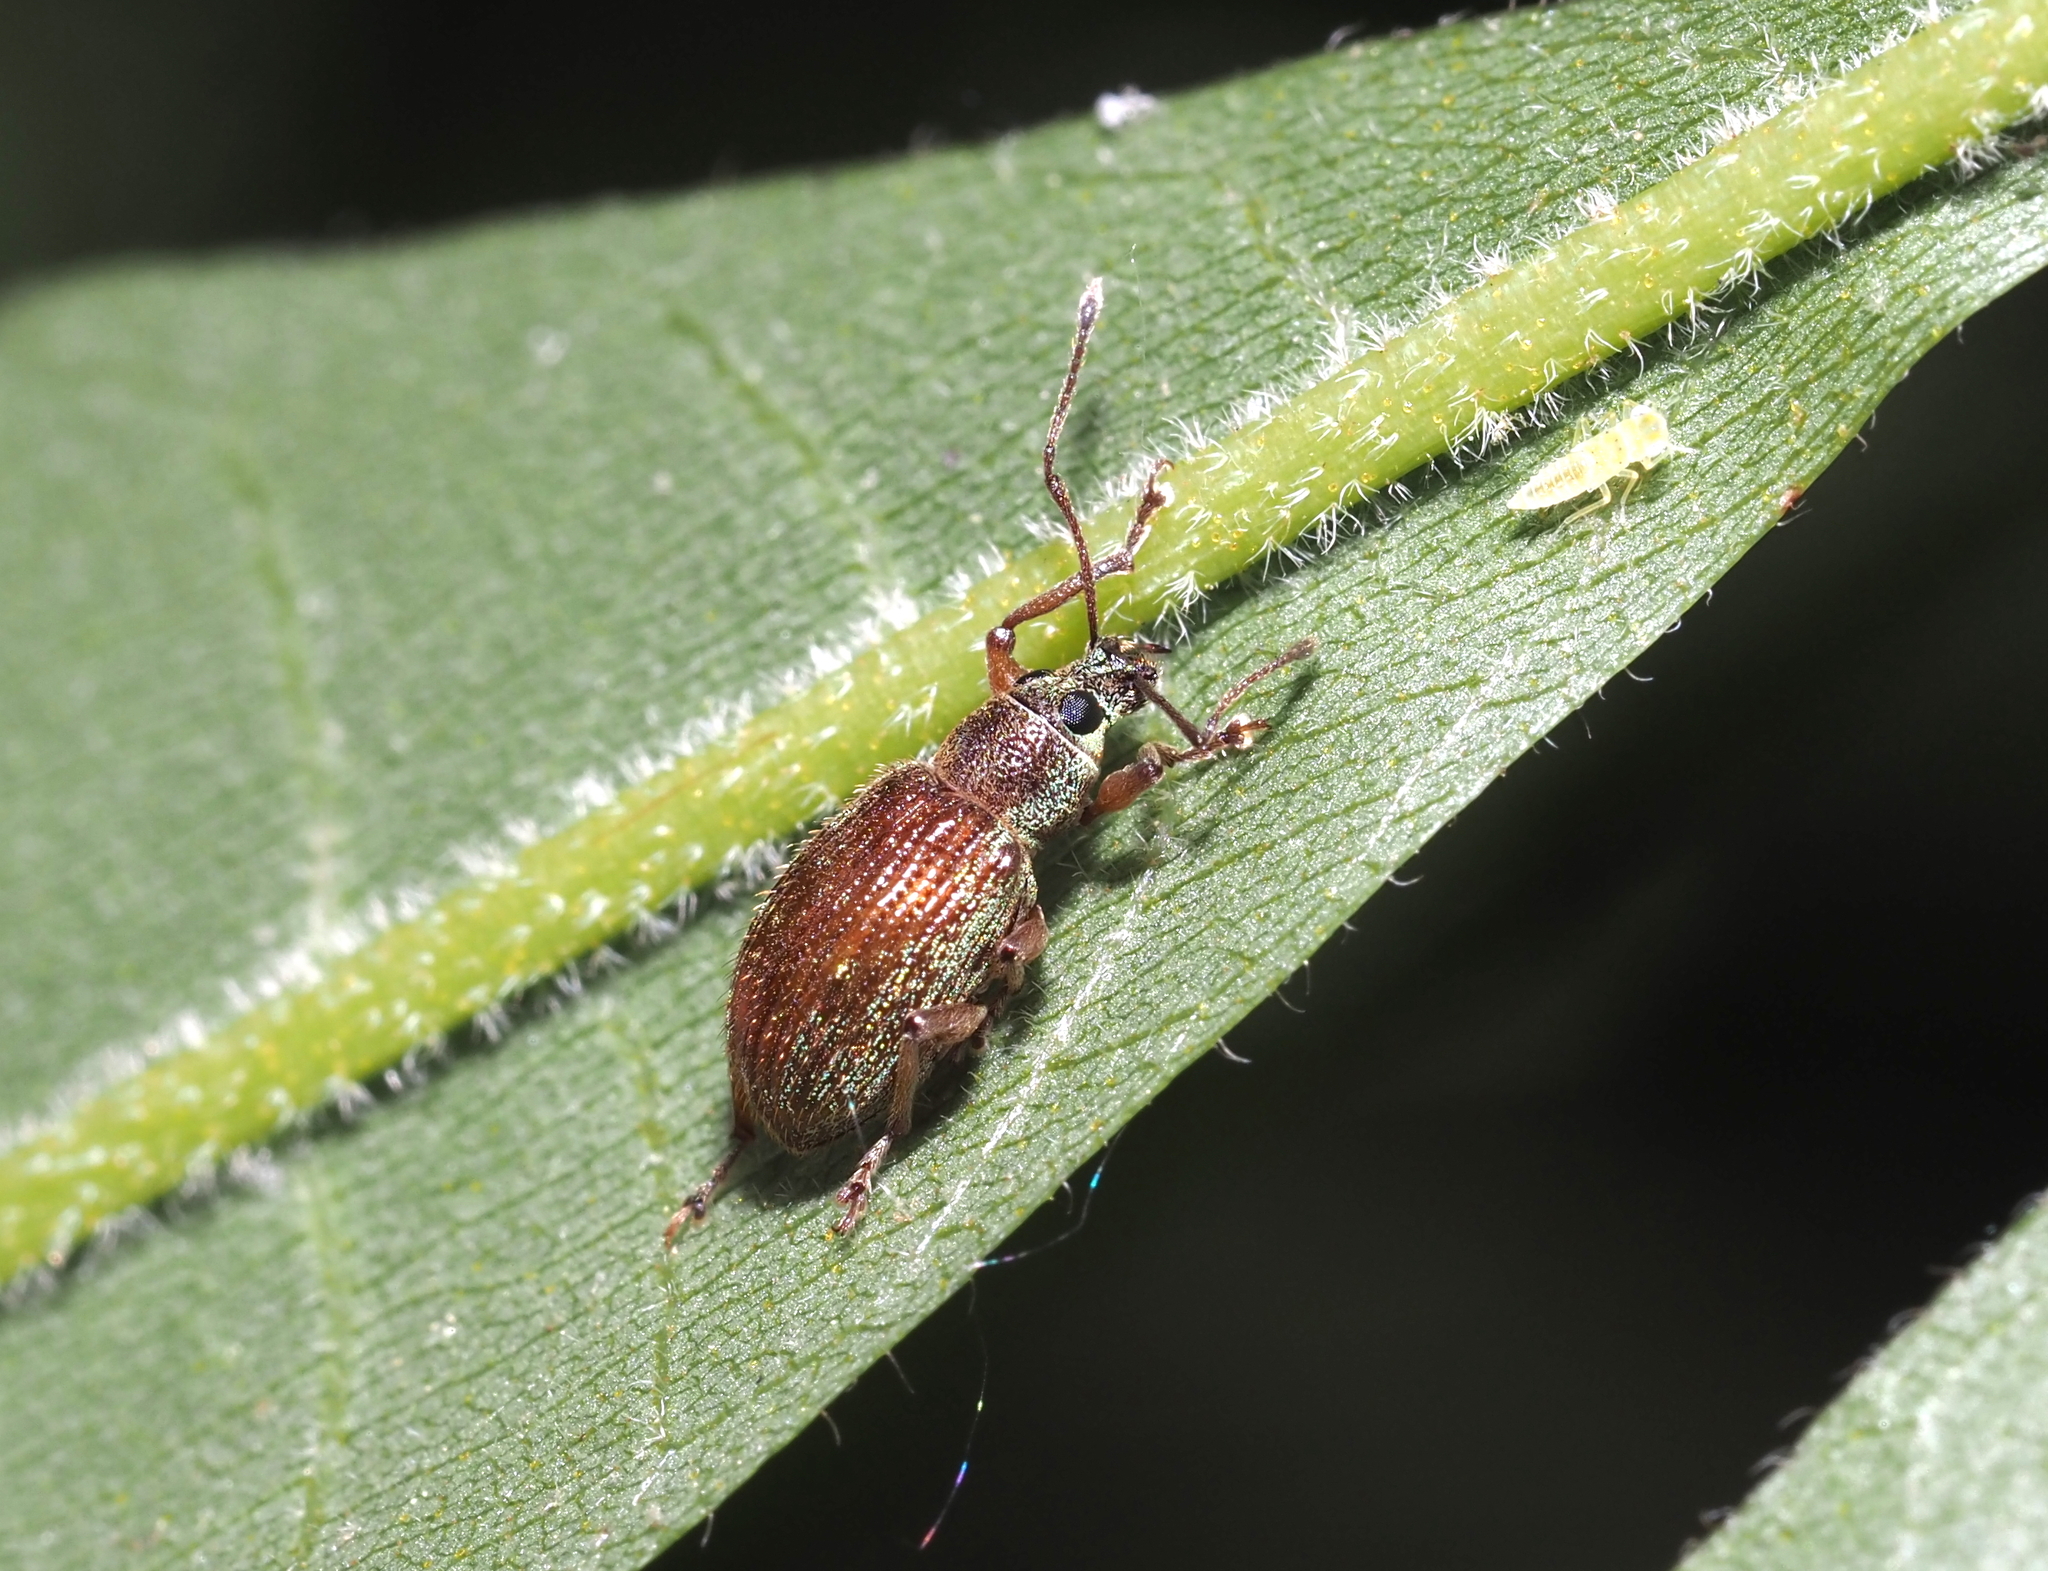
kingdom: Animalia
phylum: Arthropoda
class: Insecta
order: Coleoptera
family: Curculionidae
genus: Cyrtepistomus
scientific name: Cyrtepistomus castaneus
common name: Weevil
